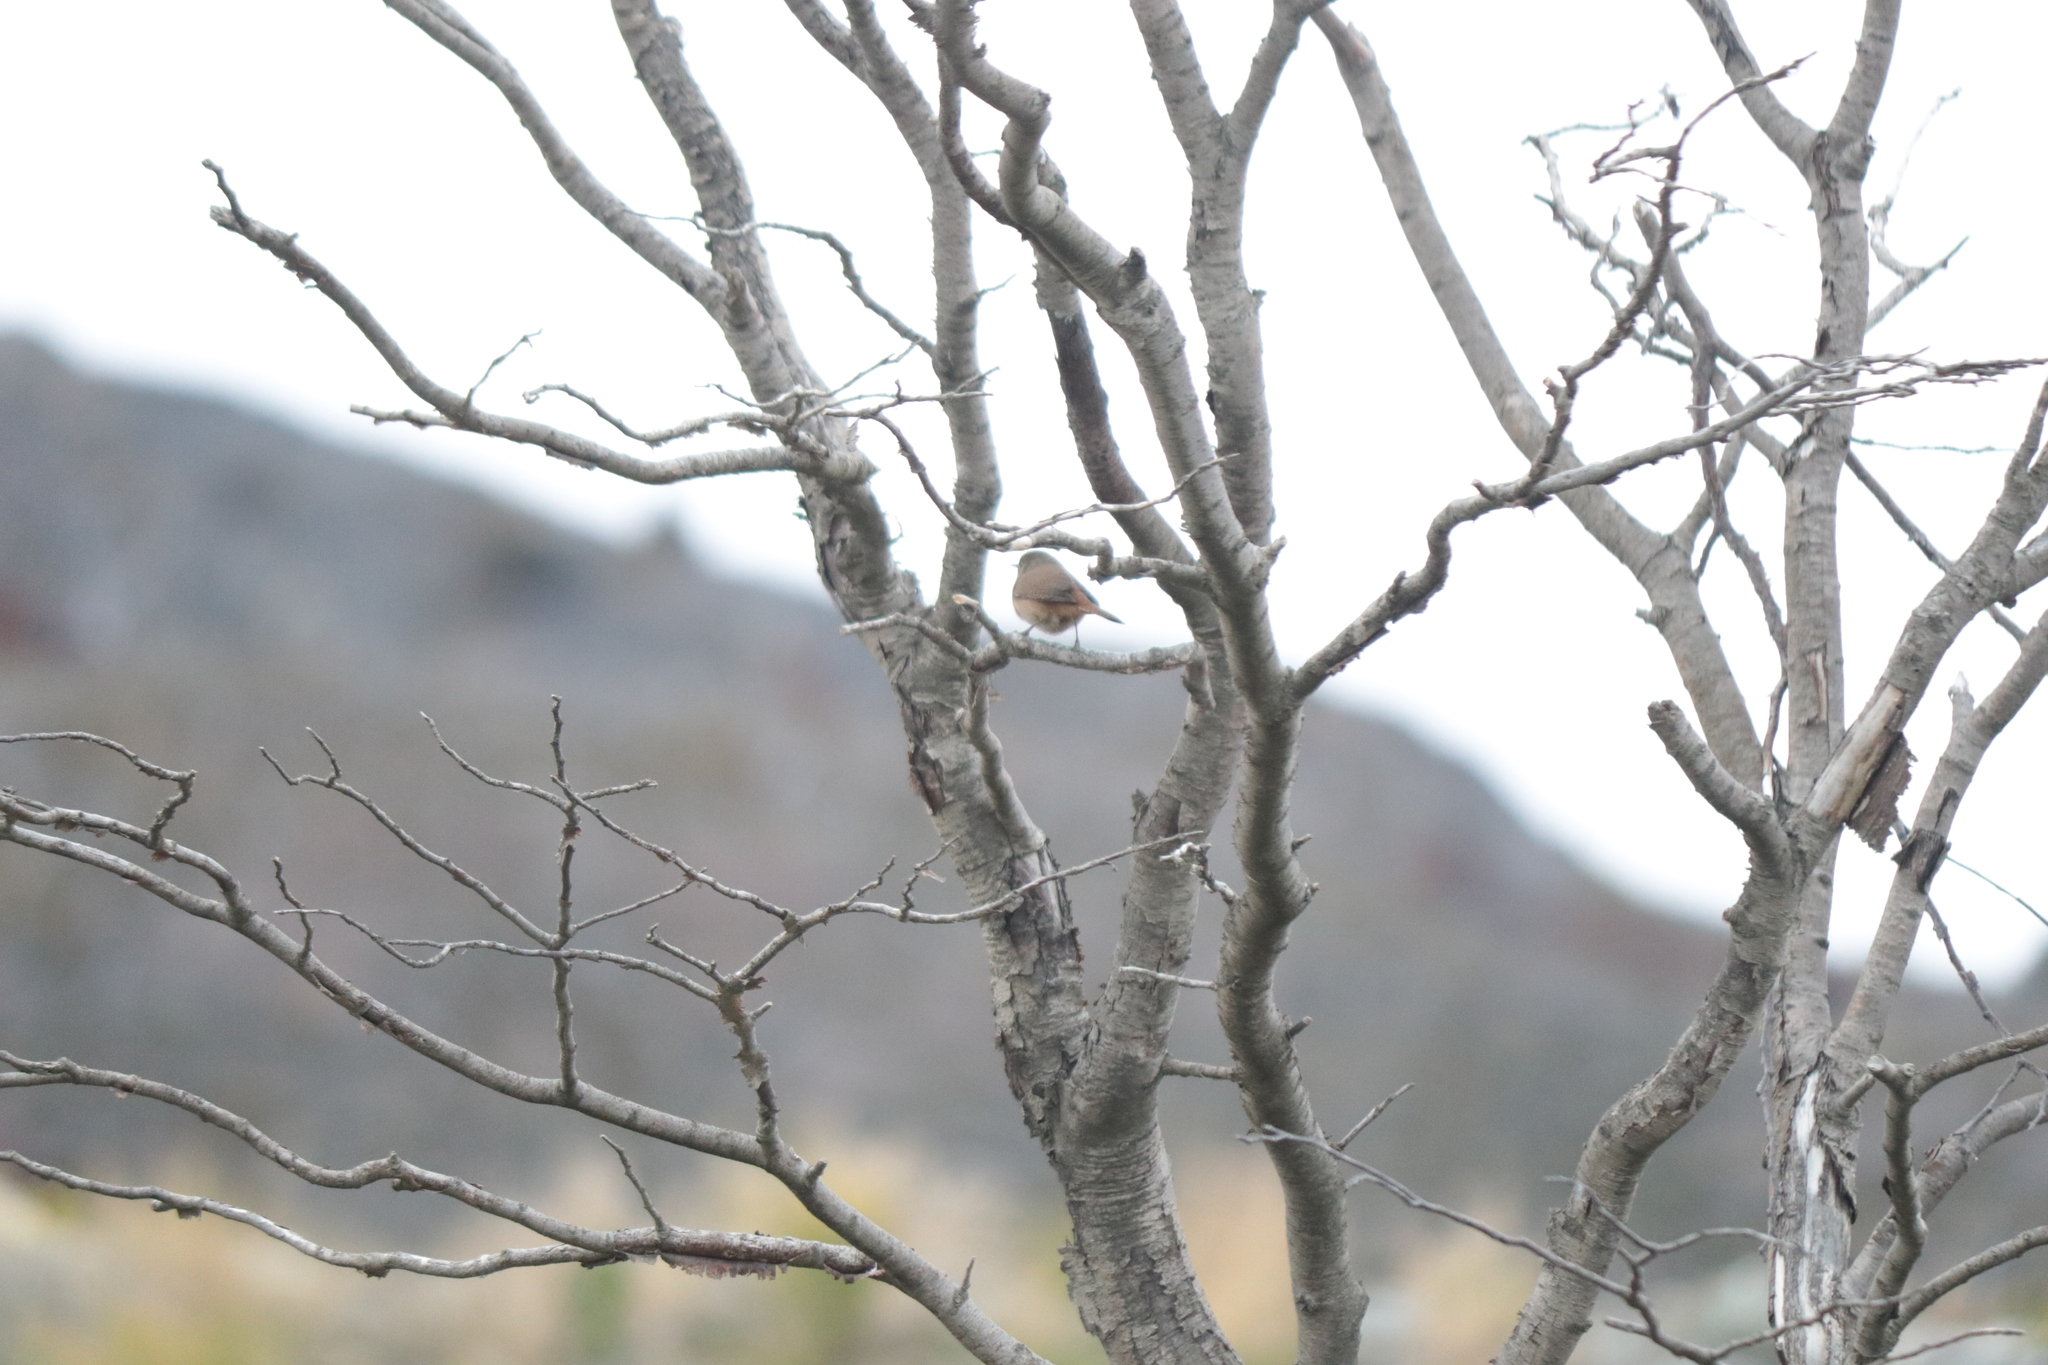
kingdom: Animalia
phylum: Chordata
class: Aves
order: Passeriformes
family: Troglodytidae
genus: Troglodytes
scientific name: Troglodytes aedon
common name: House wren
